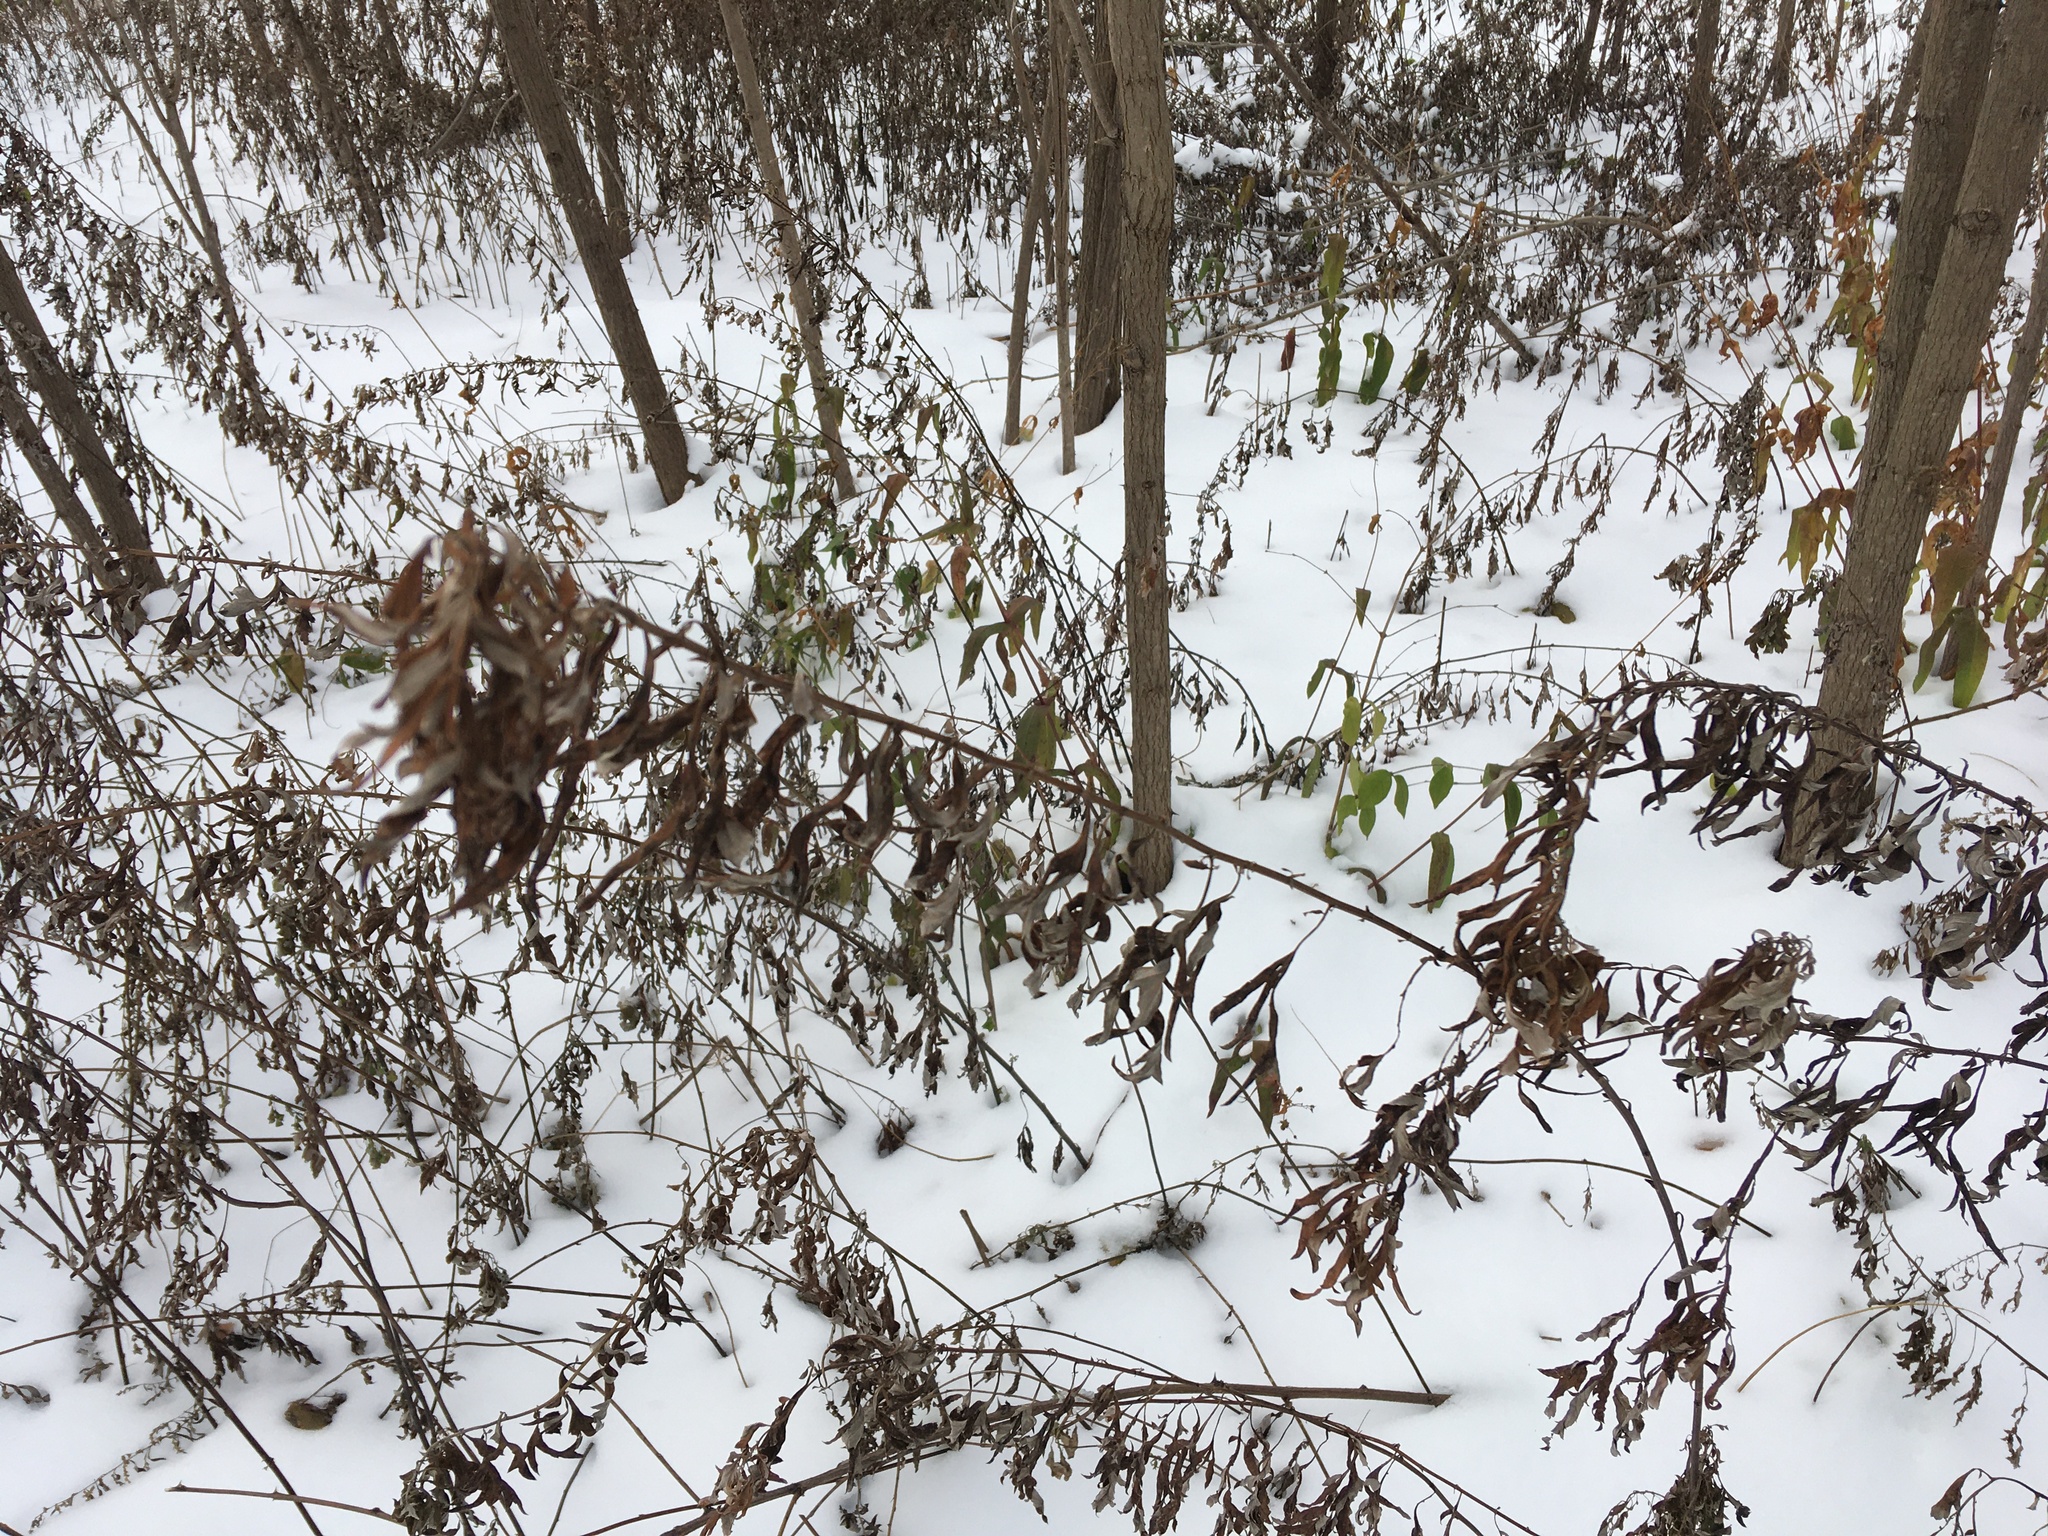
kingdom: Plantae
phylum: Tracheophyta
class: Magnoliopsida
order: Asterales
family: Asteraceae
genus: Artemisia
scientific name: Artemisia vulgaris
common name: Mugwort
